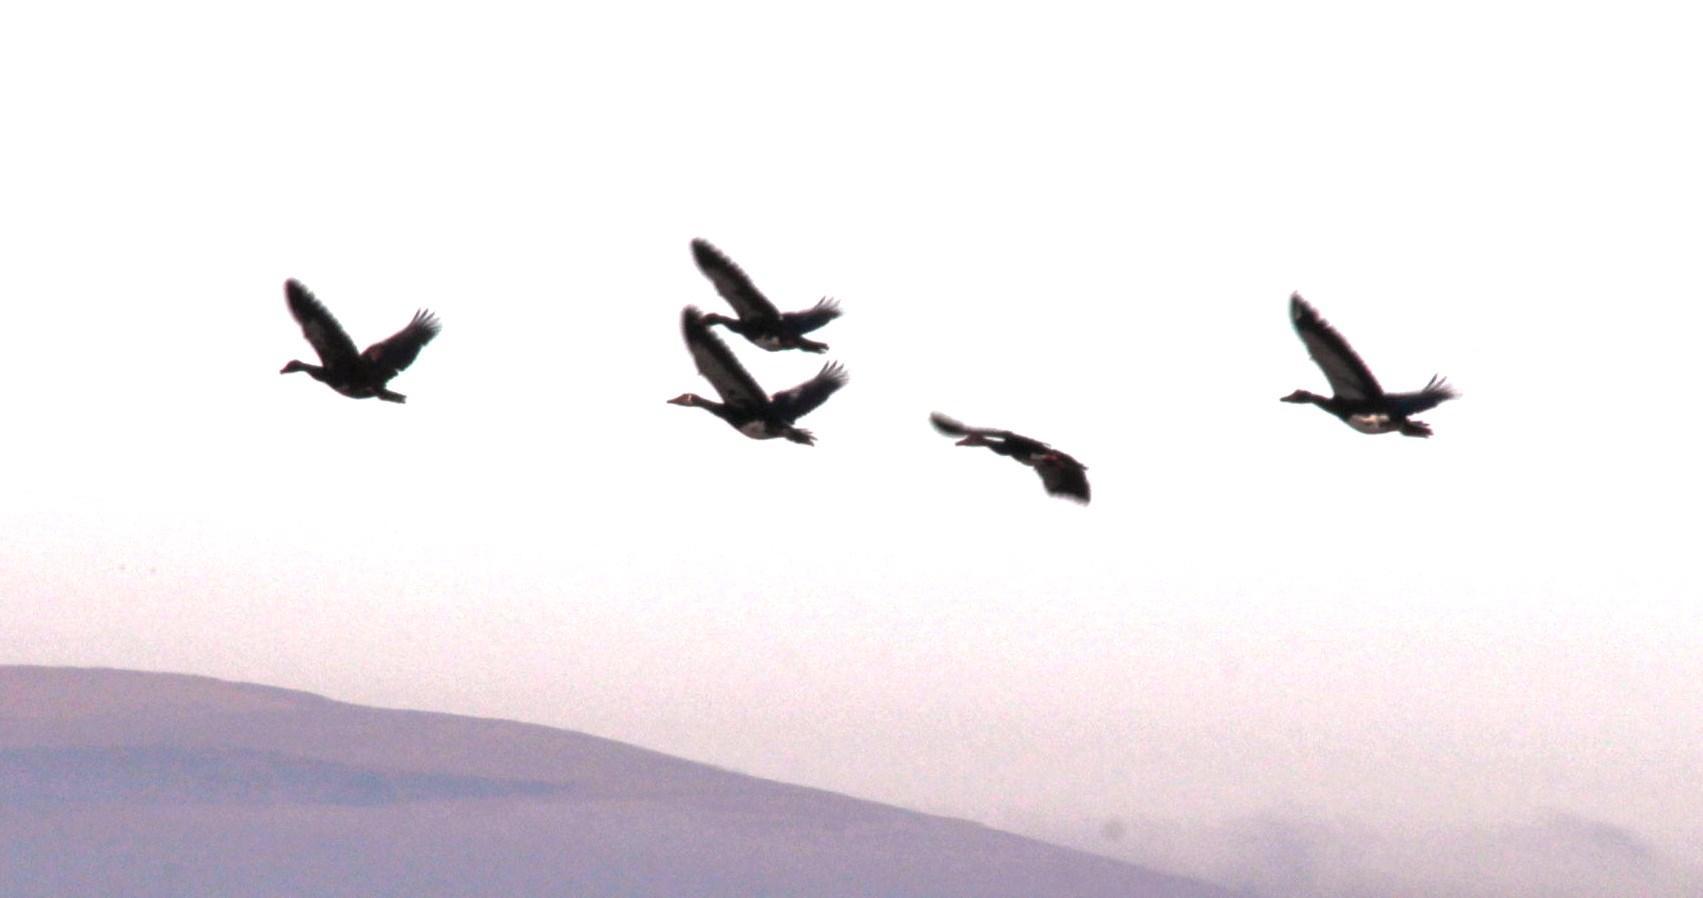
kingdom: Animalia
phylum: Chordata
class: Aves
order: Anseriformes
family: Anatidae
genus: Plectropterus
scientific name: Plectropterus gambensis
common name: Spur-winged goose
